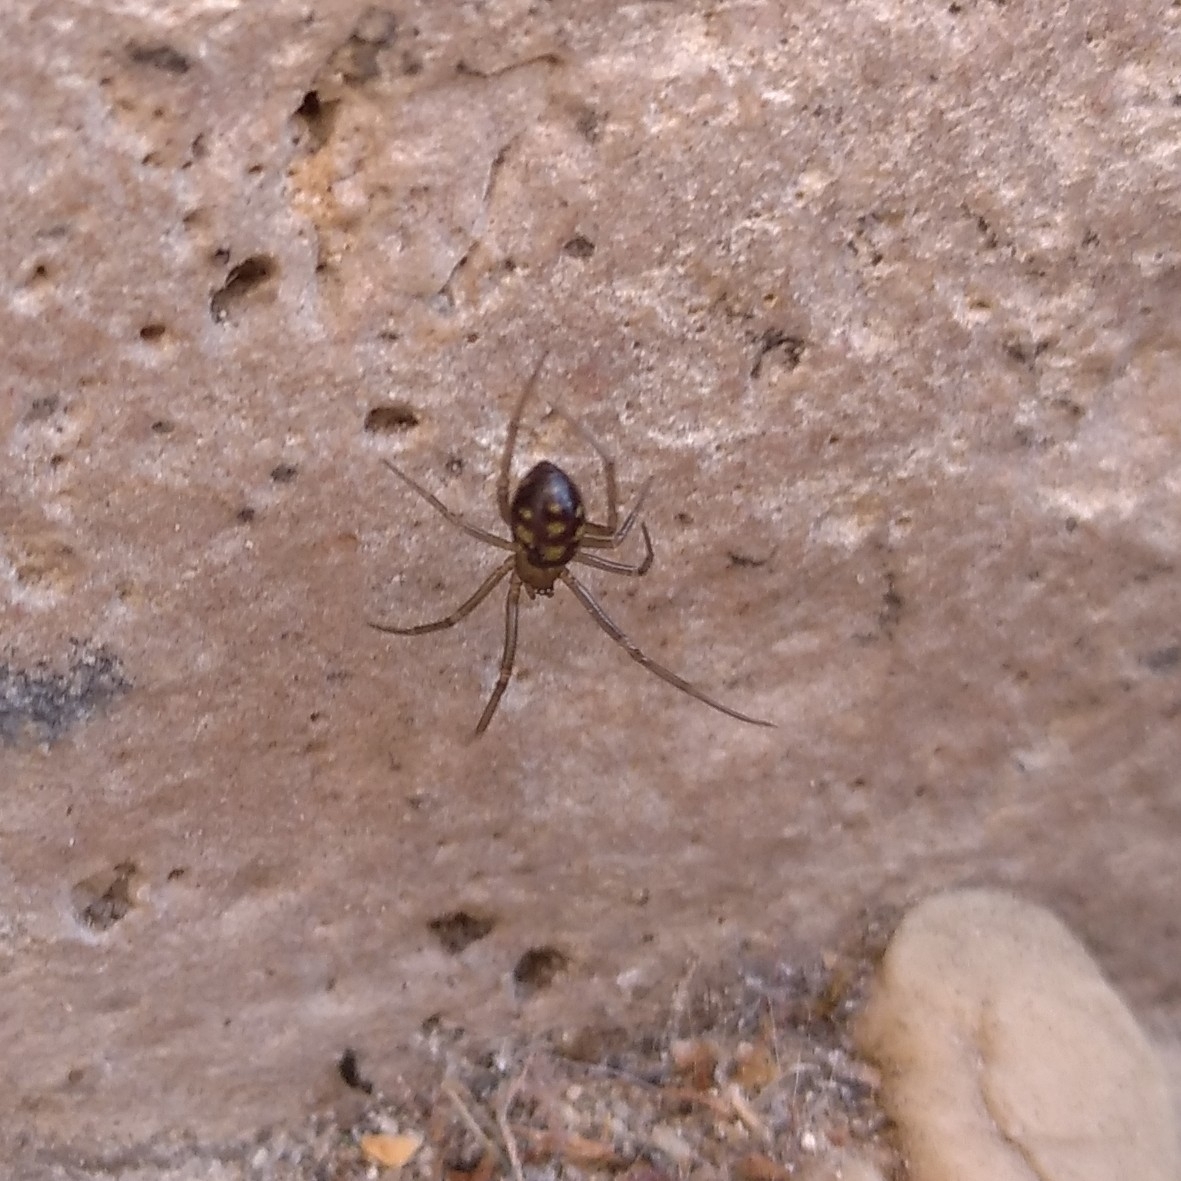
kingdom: Animalia
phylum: Arthropoda
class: Arachnida
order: Araneae
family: Theridiidae
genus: Steatoda
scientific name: Steatoda grossa
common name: False black widow
